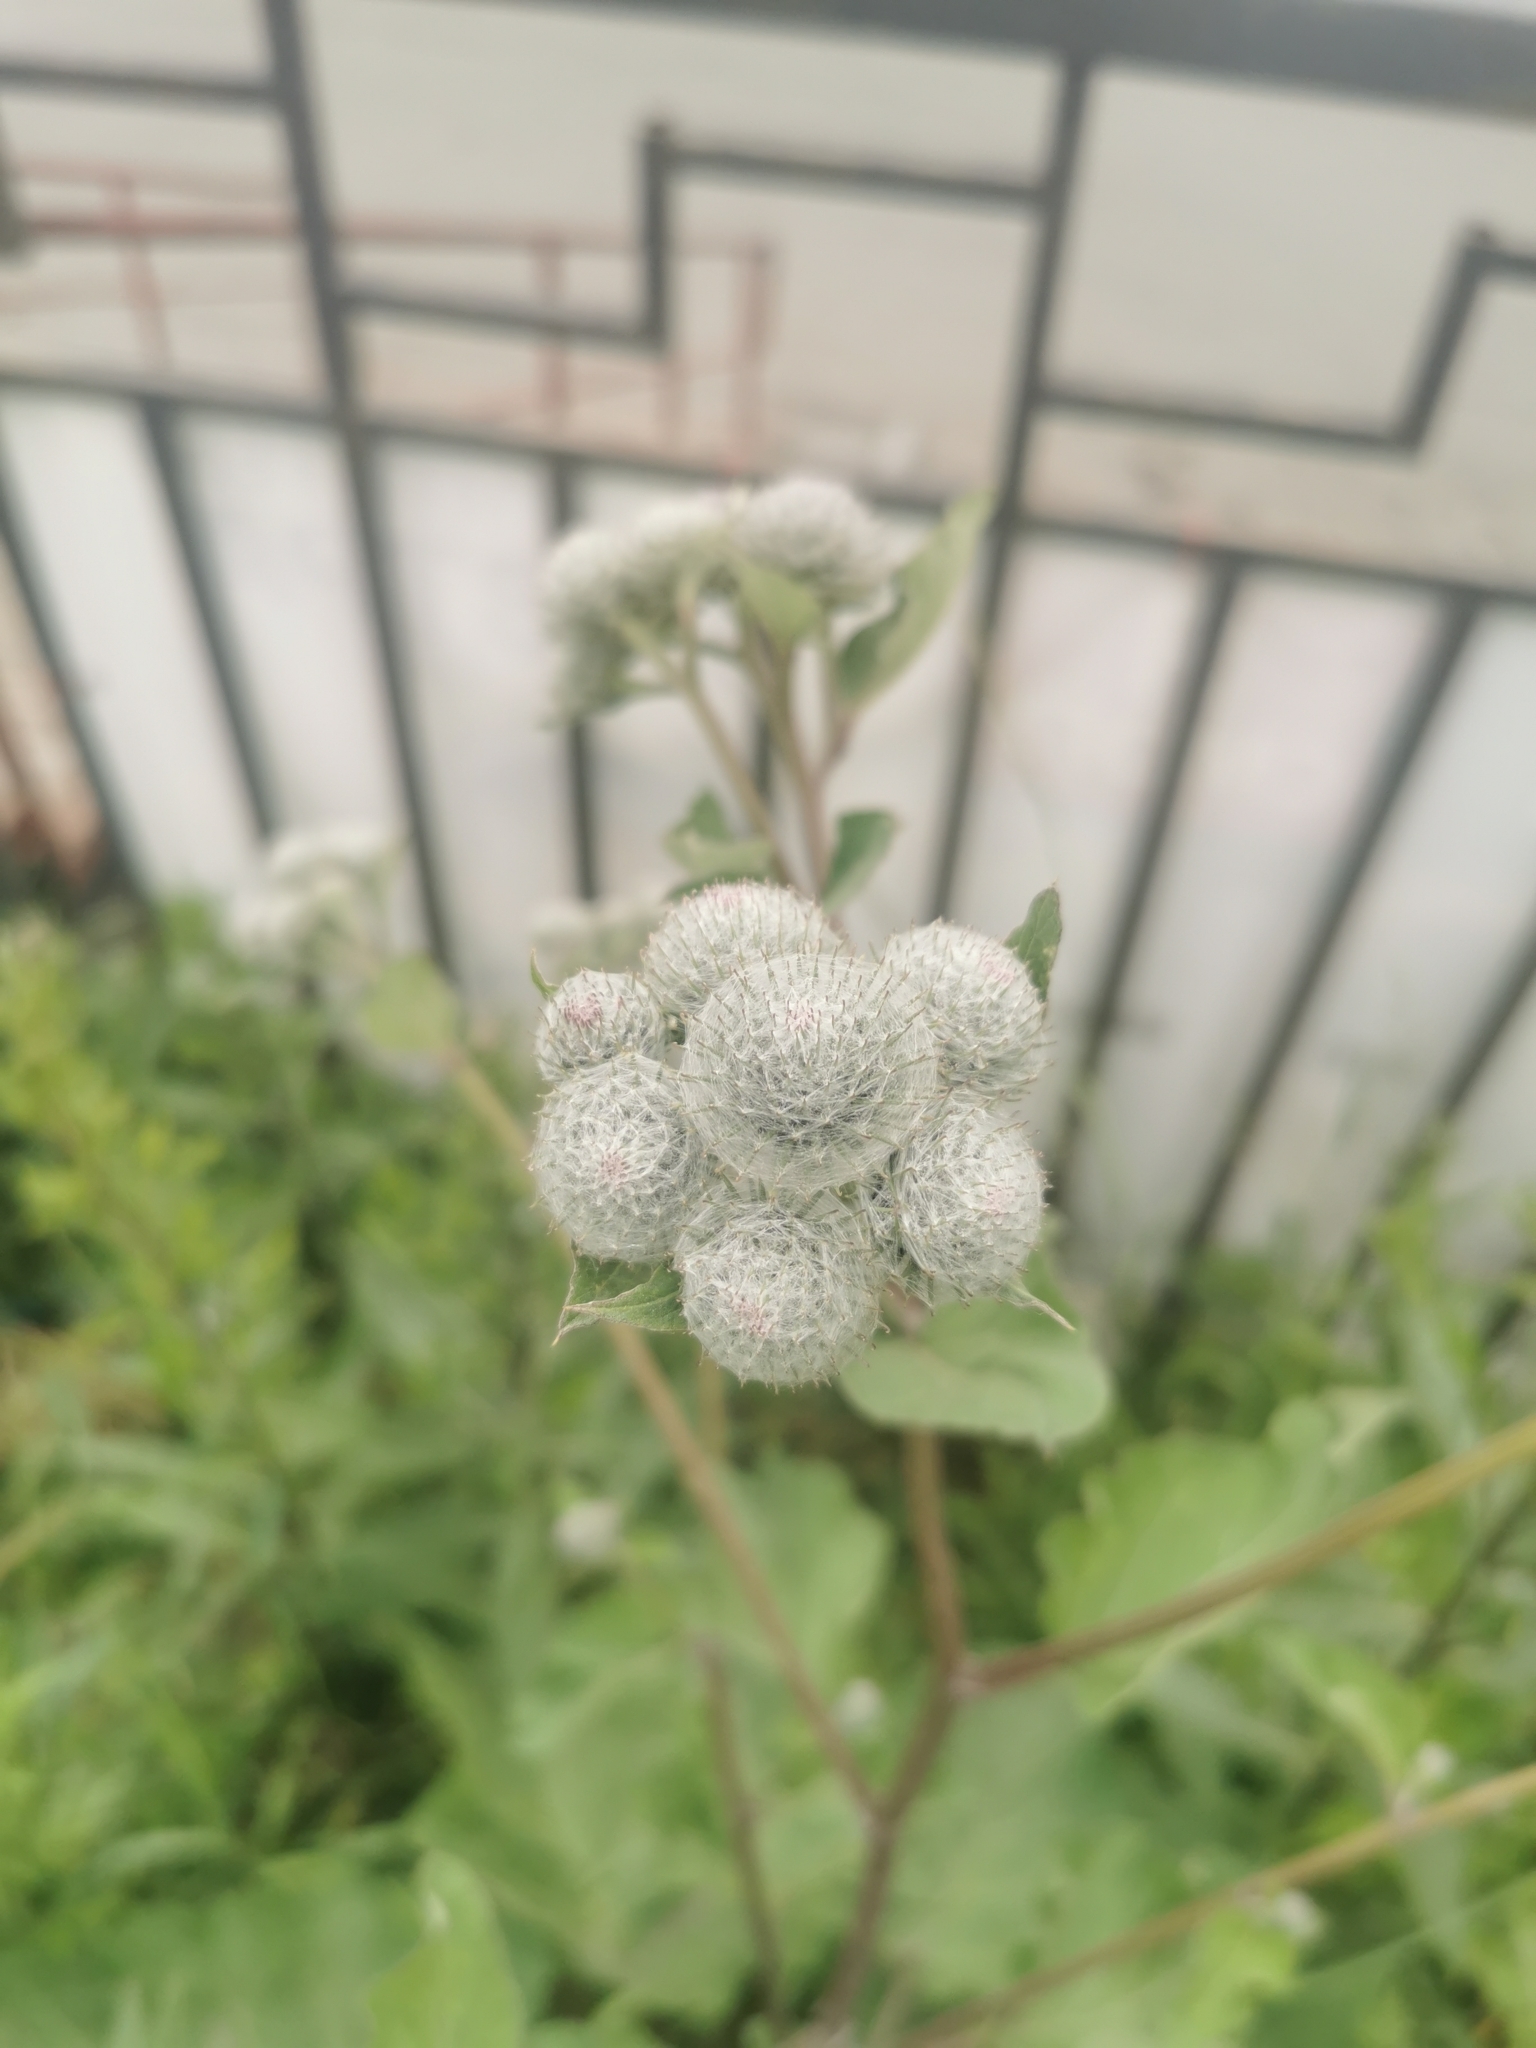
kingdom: Plantae
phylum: Tracheophyta
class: Magnoliopsida
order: Asterales
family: Asteraceae
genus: Arctium
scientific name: Arctium tomentosum
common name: Woolly burdock
